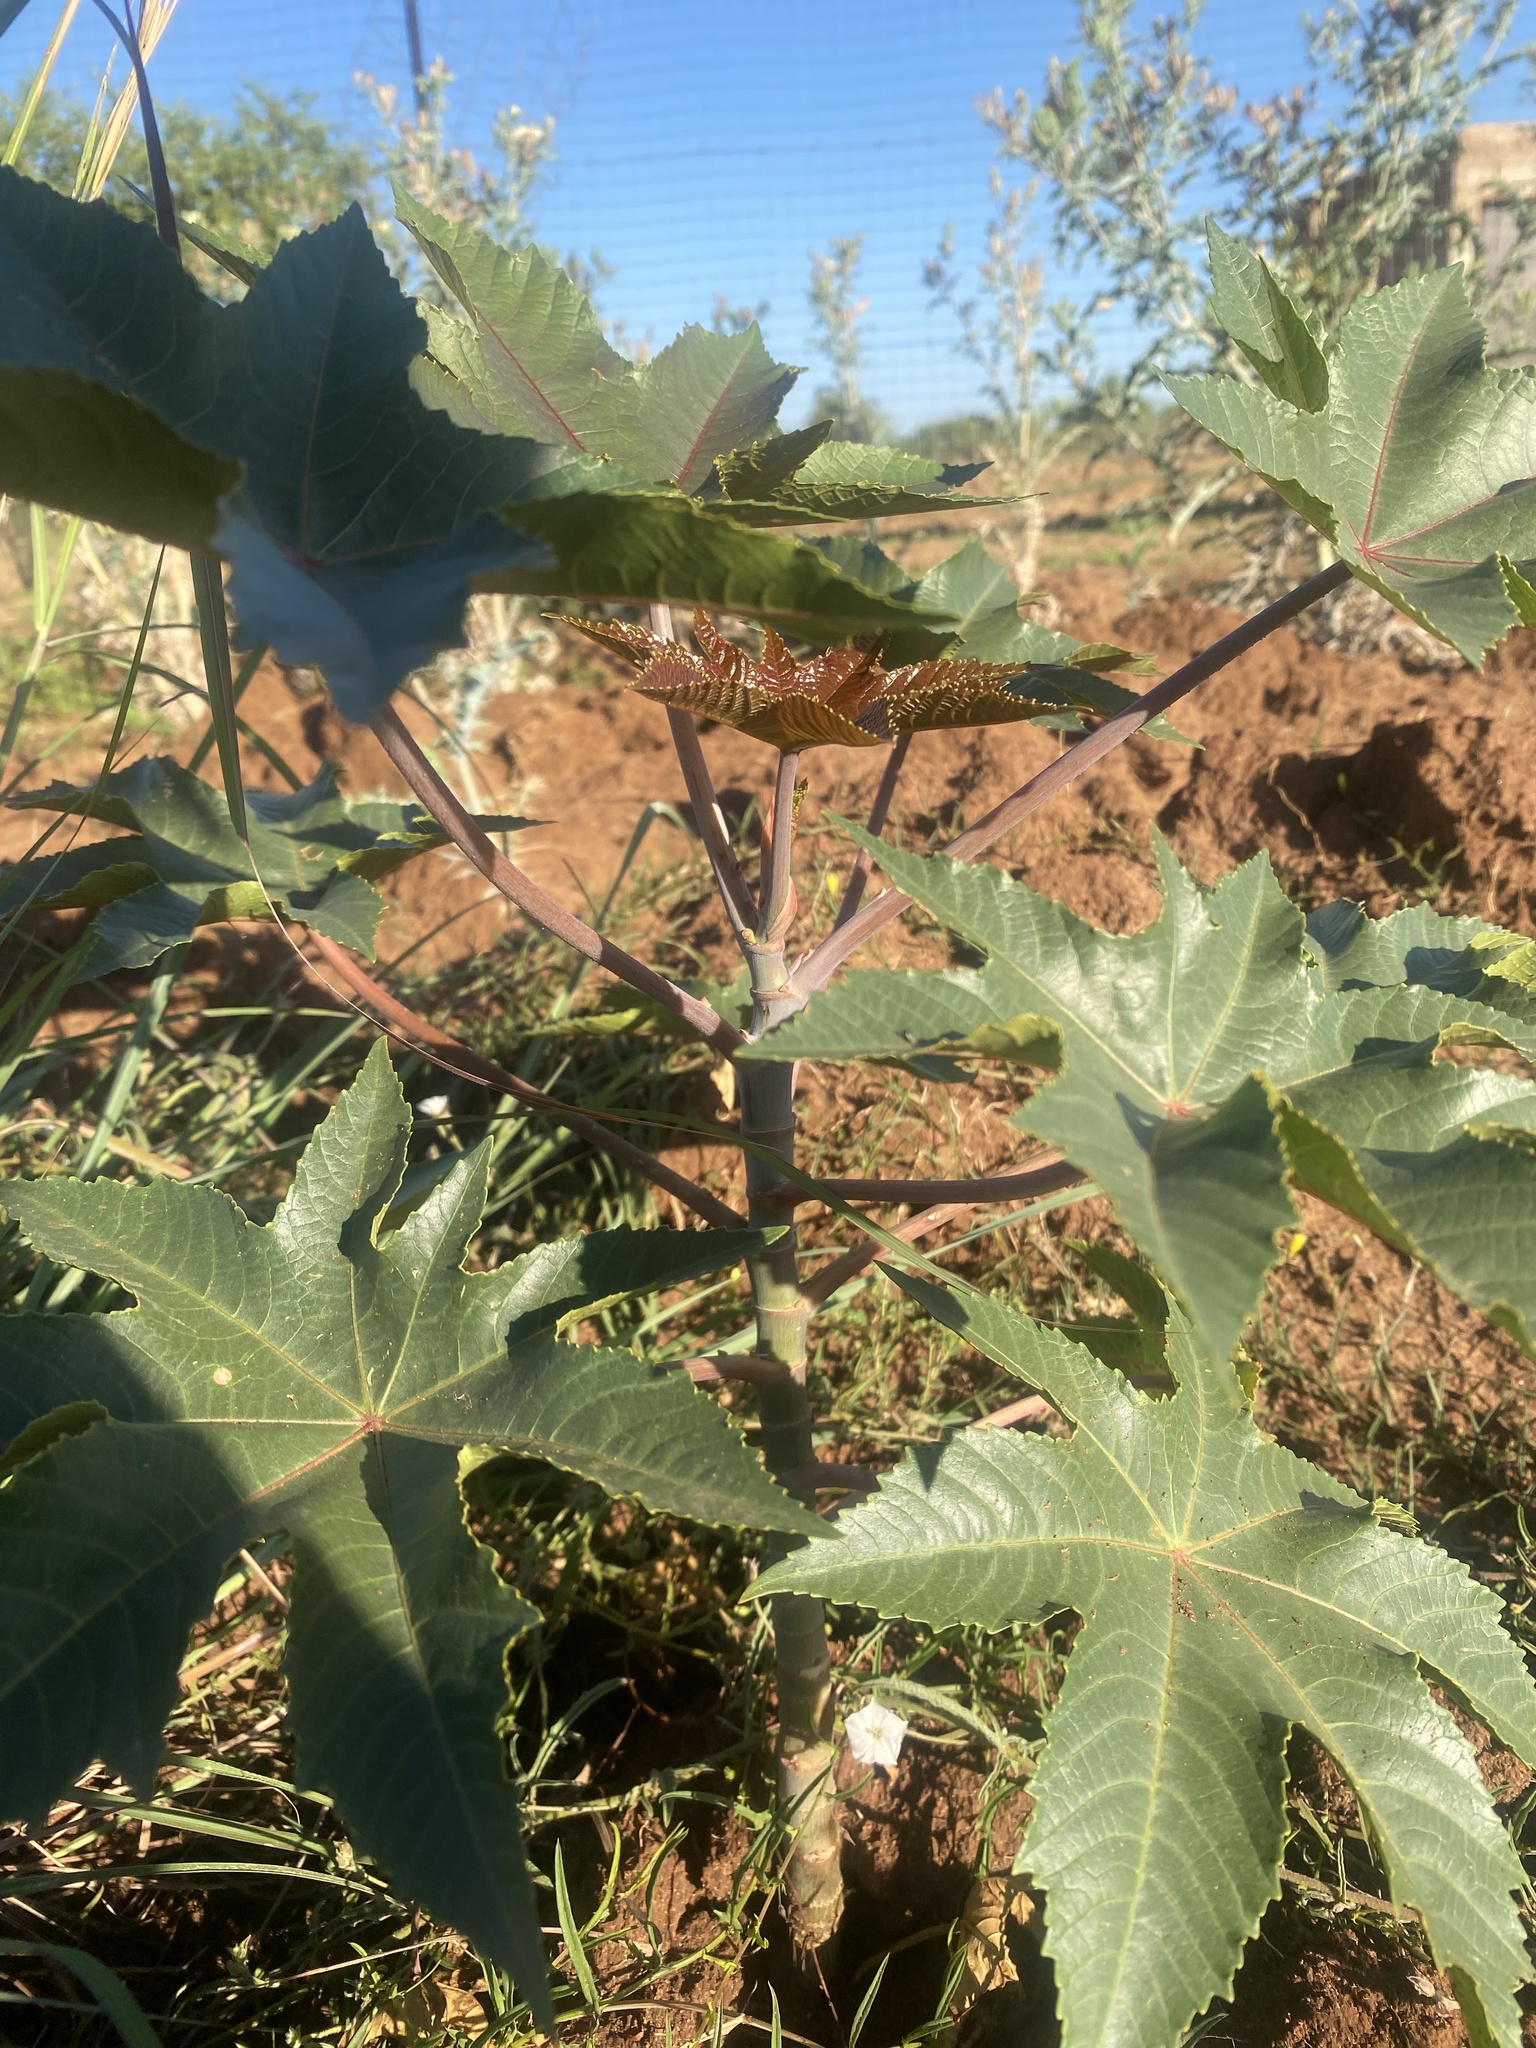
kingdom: Plantae
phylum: Tracheophyta
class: Magnoliopsida
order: Malpighiales
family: Euphorbiaceae
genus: Ricinus
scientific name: Ricinus communis
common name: Castor-oil-plant
